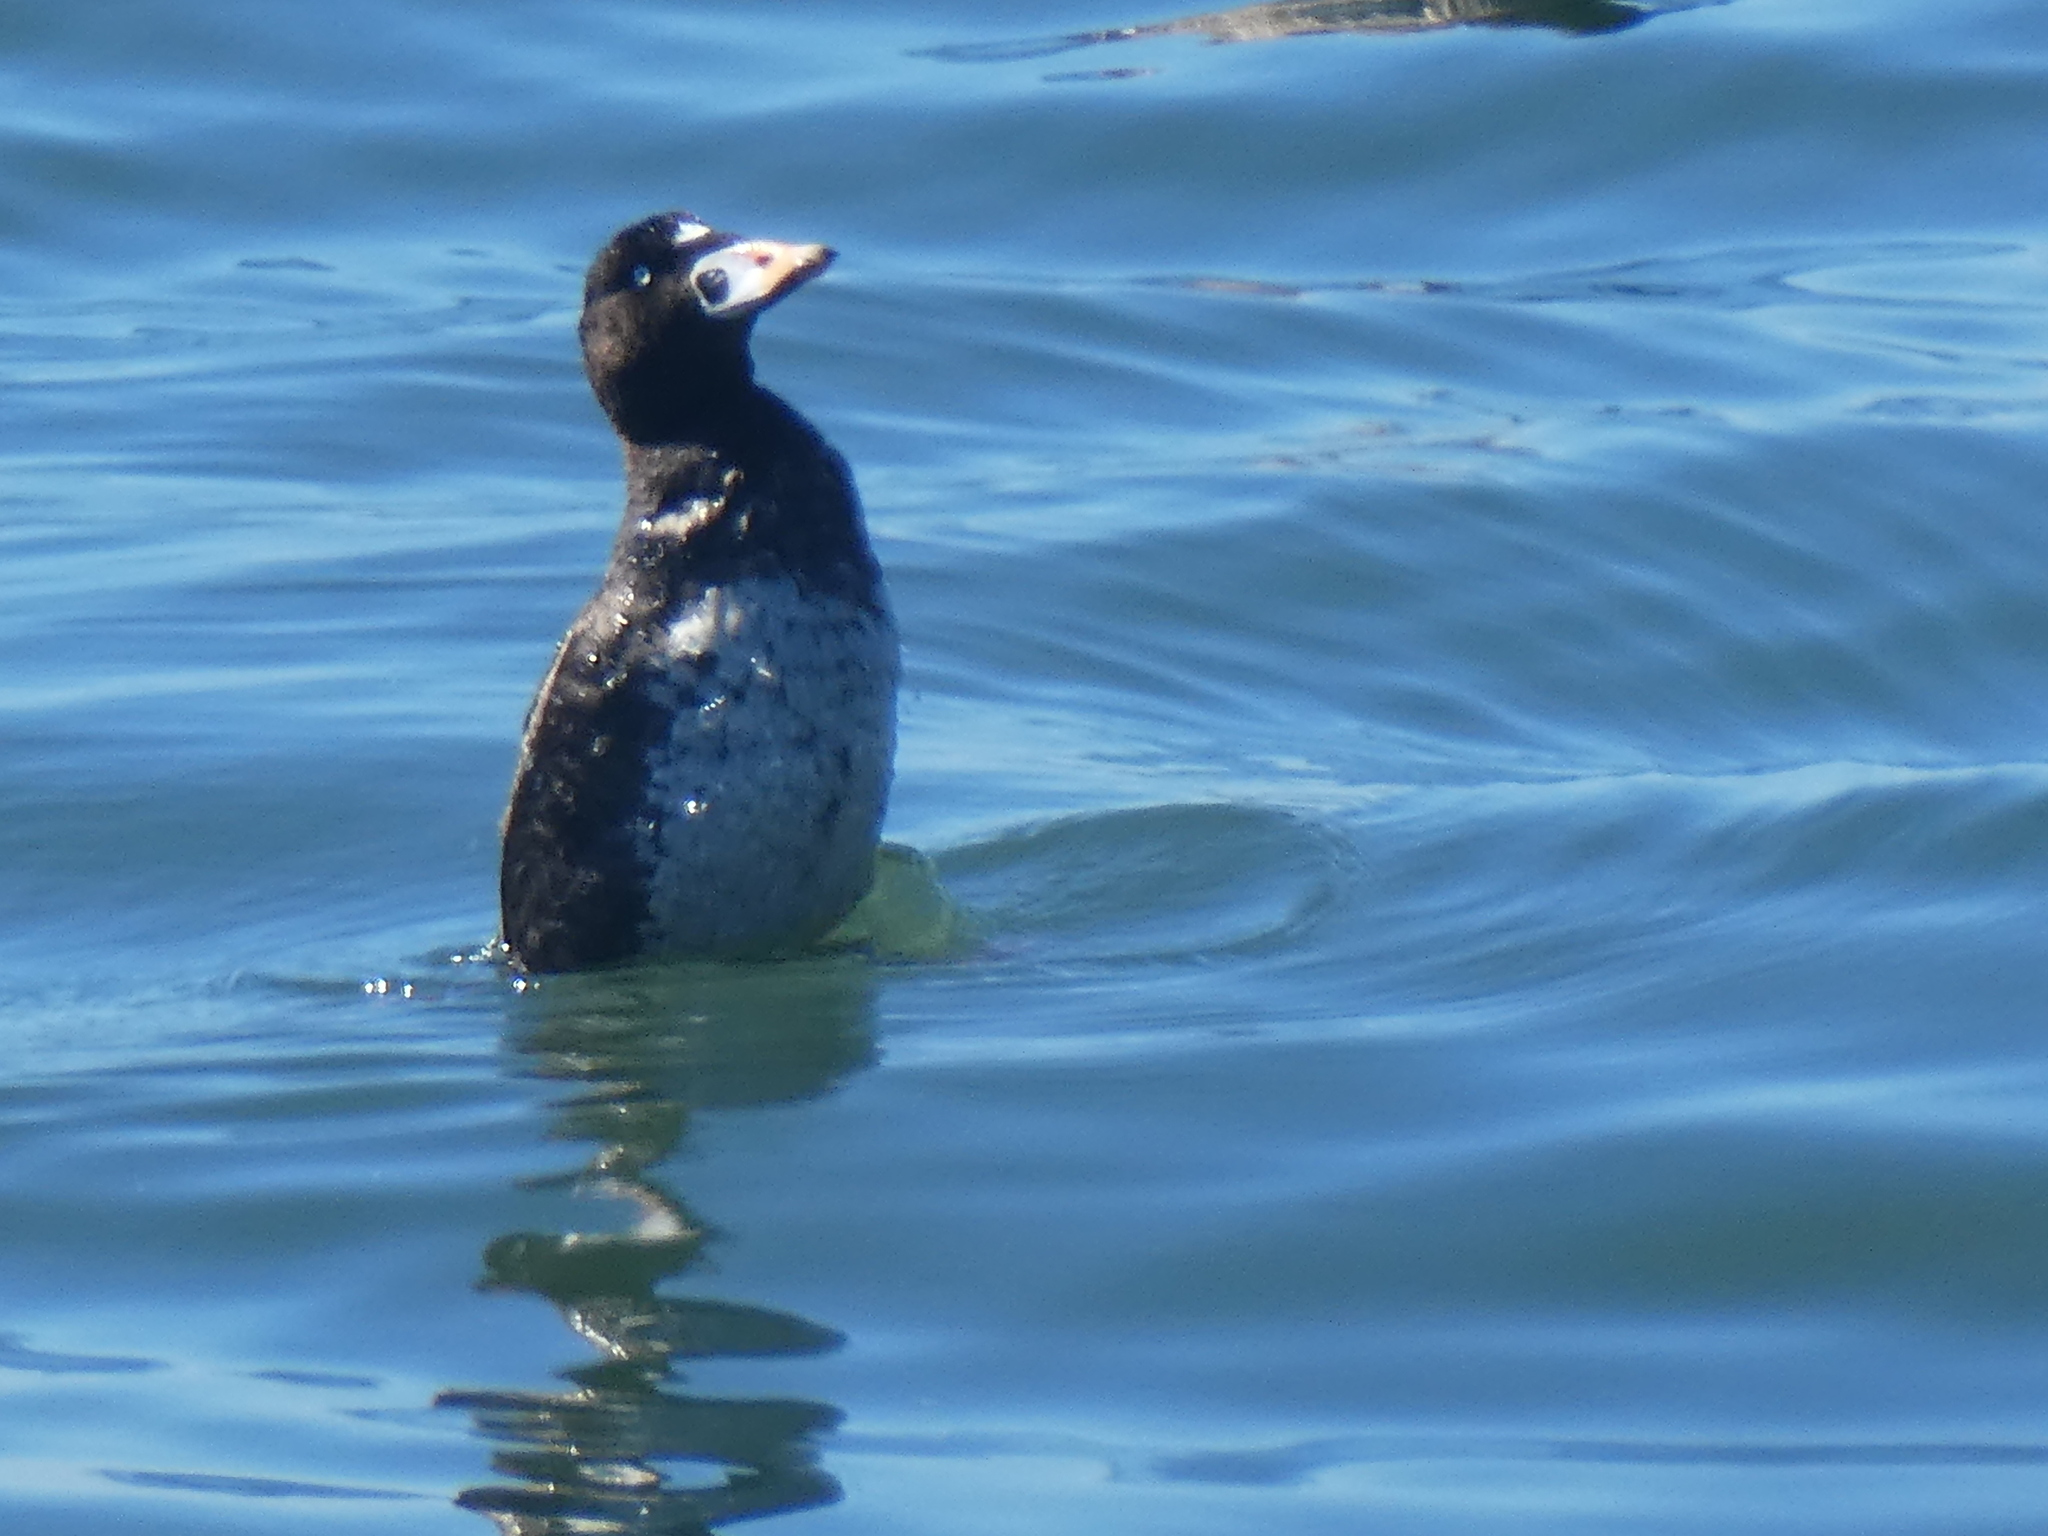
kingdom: Animalia
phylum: Chordata
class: Aves
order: Anseriformes
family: Anatidae
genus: Melanitta
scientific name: Melanitta perspicillata
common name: Surf scoter
